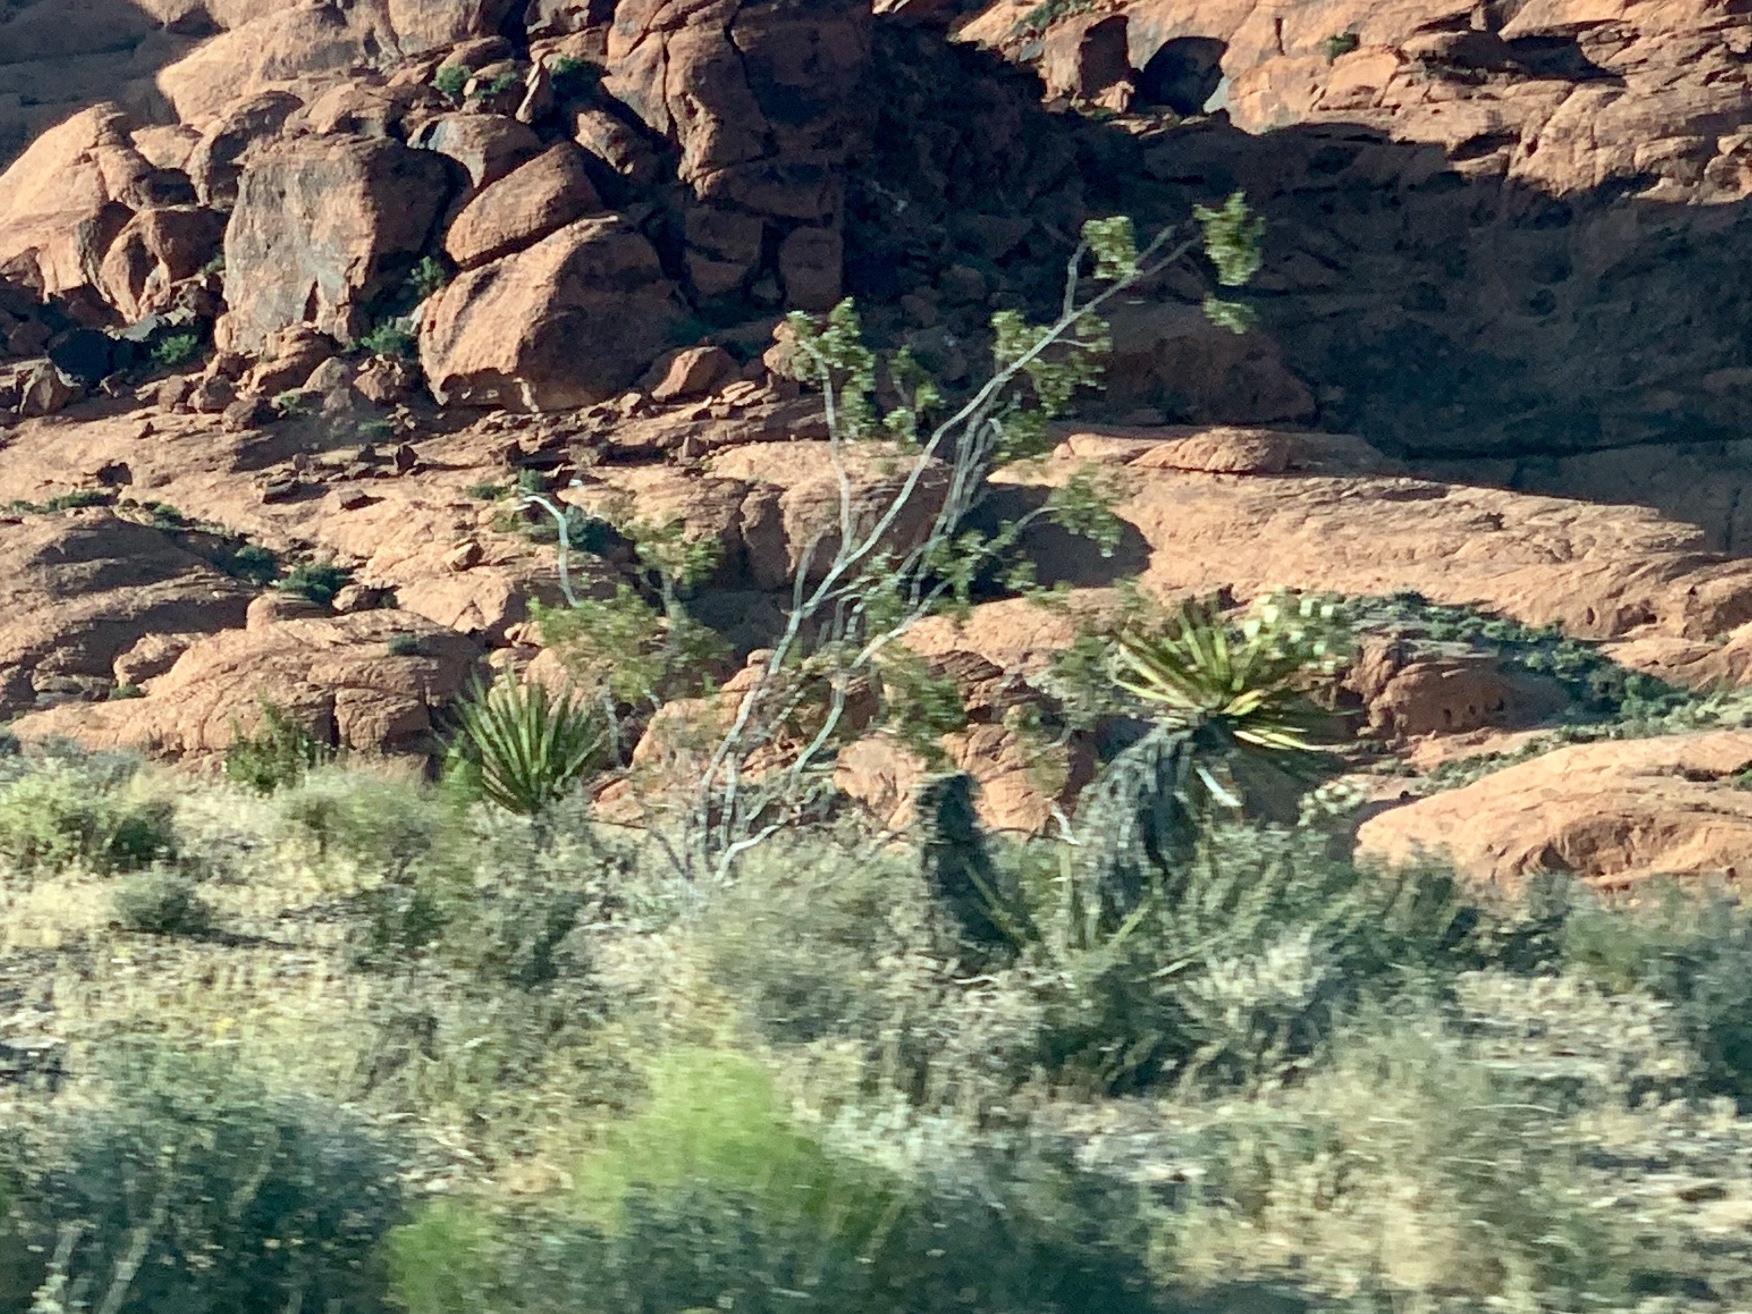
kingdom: Plantae
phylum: Tracheophyta
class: Magnoliopsida
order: Zygophyllales
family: Zygophyllaceae
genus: Larrea
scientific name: Larrea tridentata
